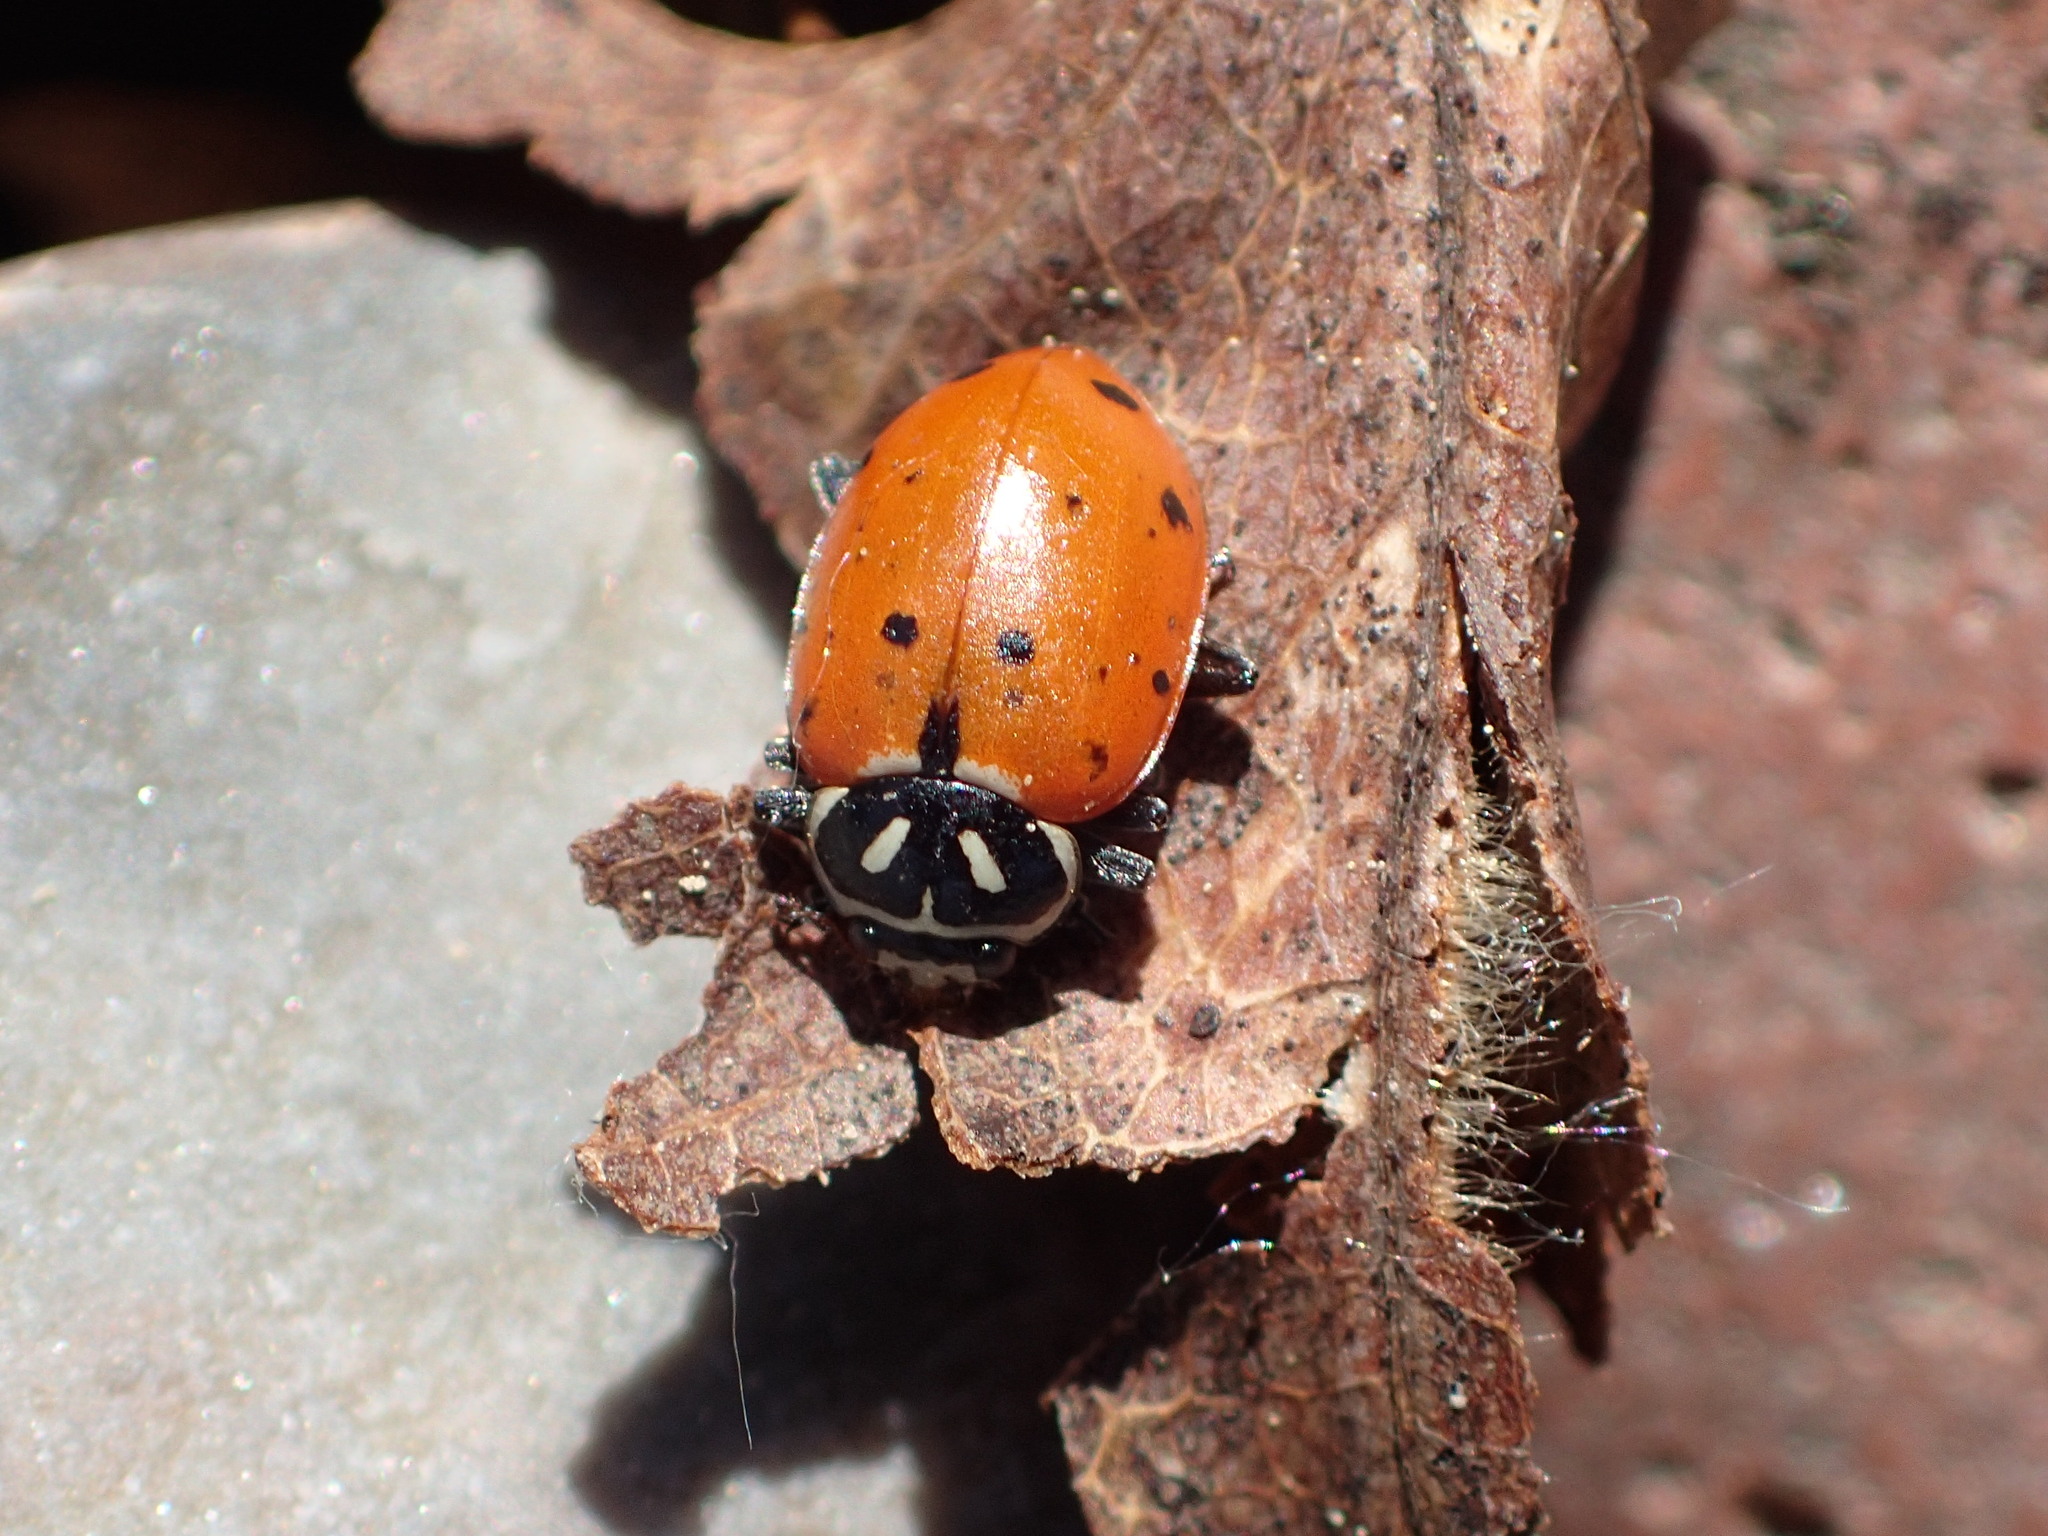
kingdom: Animalia
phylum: Arthropoda
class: Insecta
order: Coleoptera
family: Coccinellidae
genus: Hippodamia
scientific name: Hippodamia convergens
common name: Convergent lady beetle
